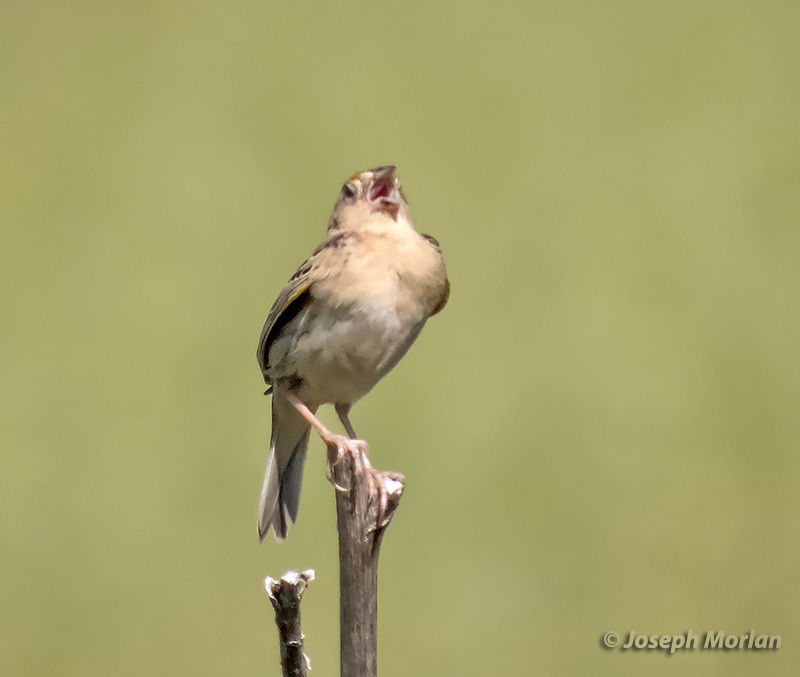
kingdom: Animalia
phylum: Chordata
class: Aves
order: Passeriformes
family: Passerellidae
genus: Ammodramus
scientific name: Ammodramus savannarum
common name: Grasshopper sparrow
